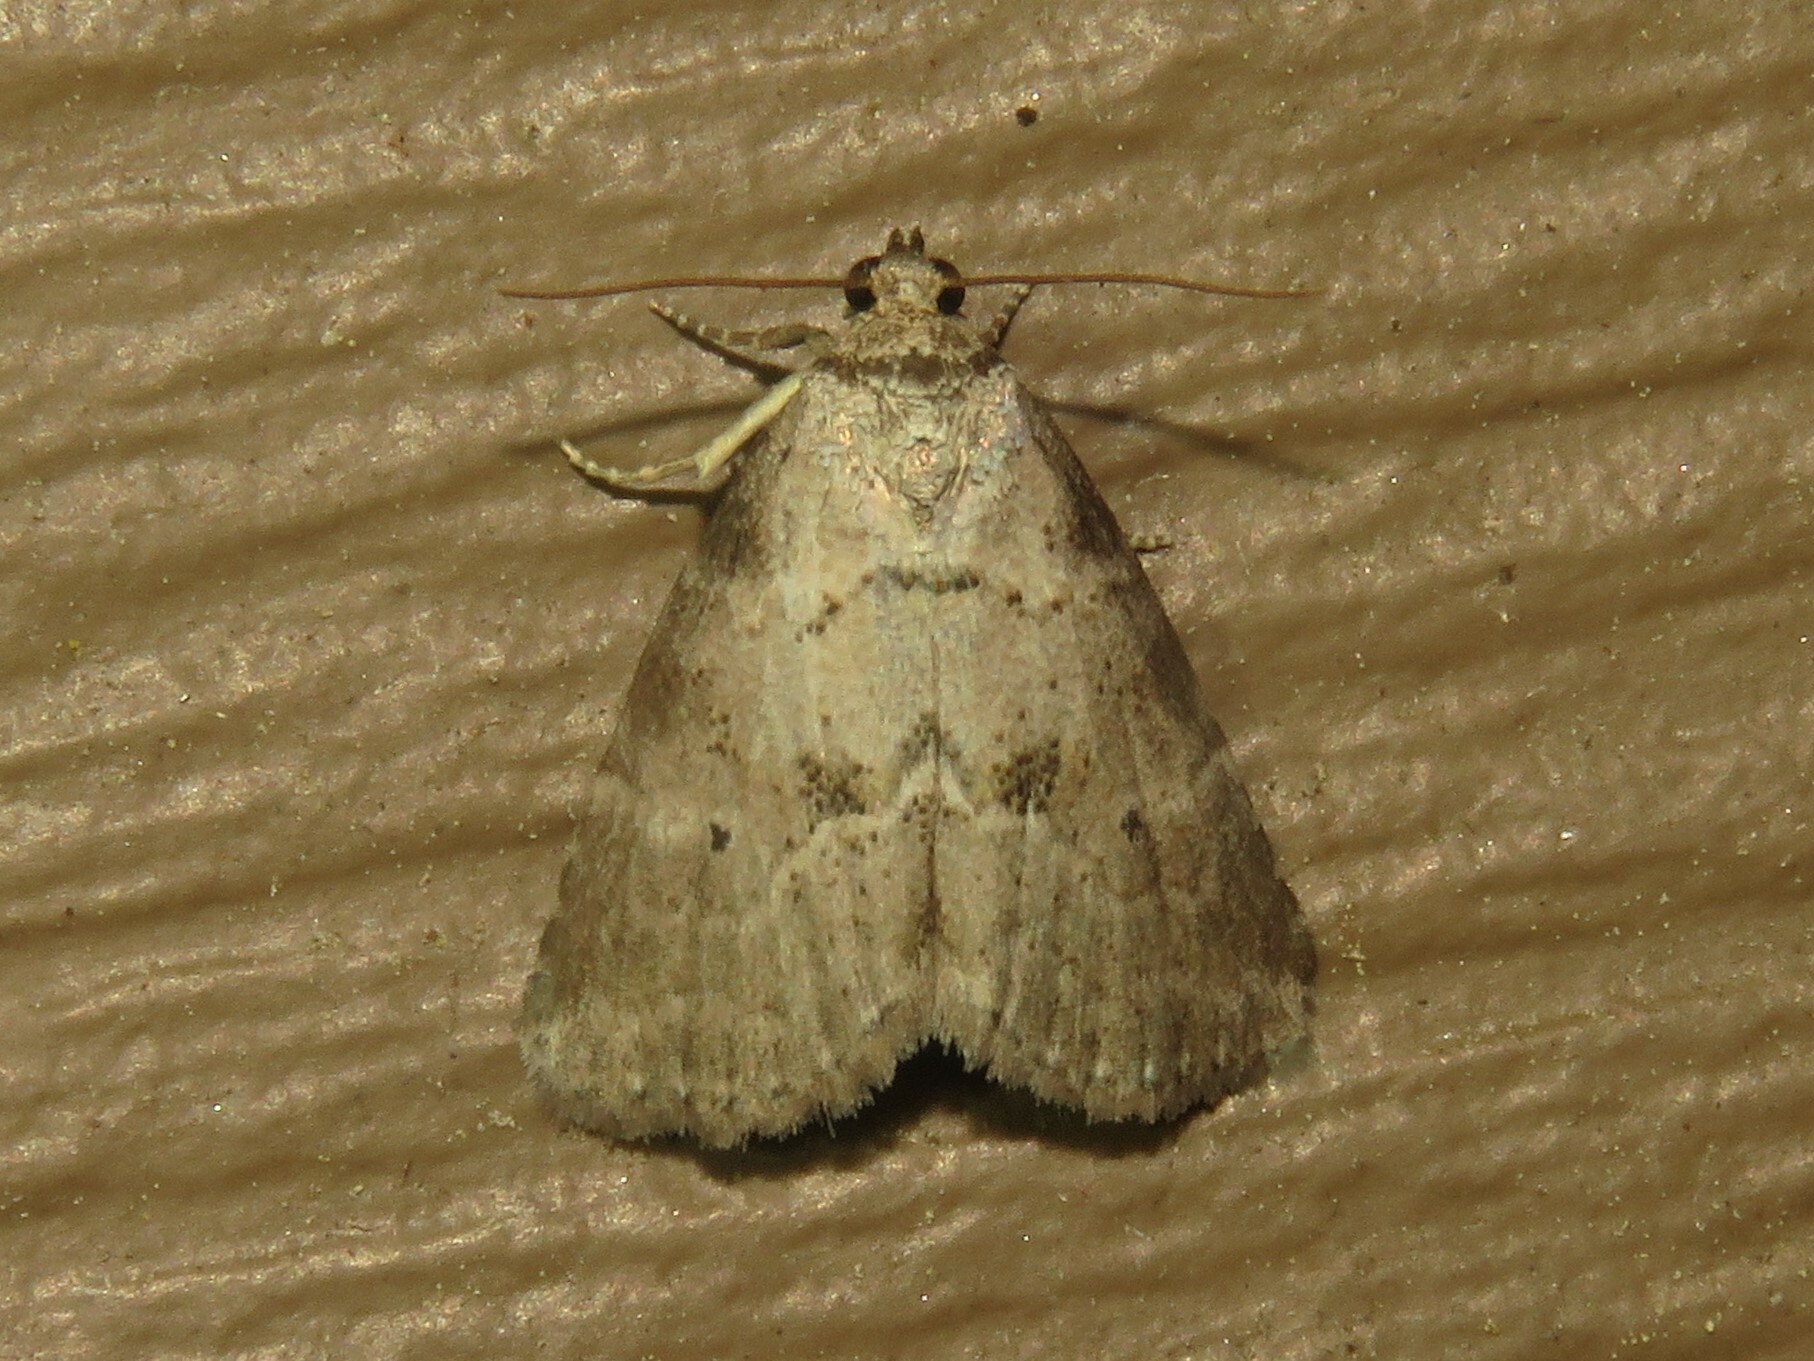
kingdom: Animalia
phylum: Arthropoda
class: Insecta
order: Lepidoptera
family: Erebidae
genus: Hyperstrotia
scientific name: Hyperstrotia pervertens
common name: Dotted graylet
